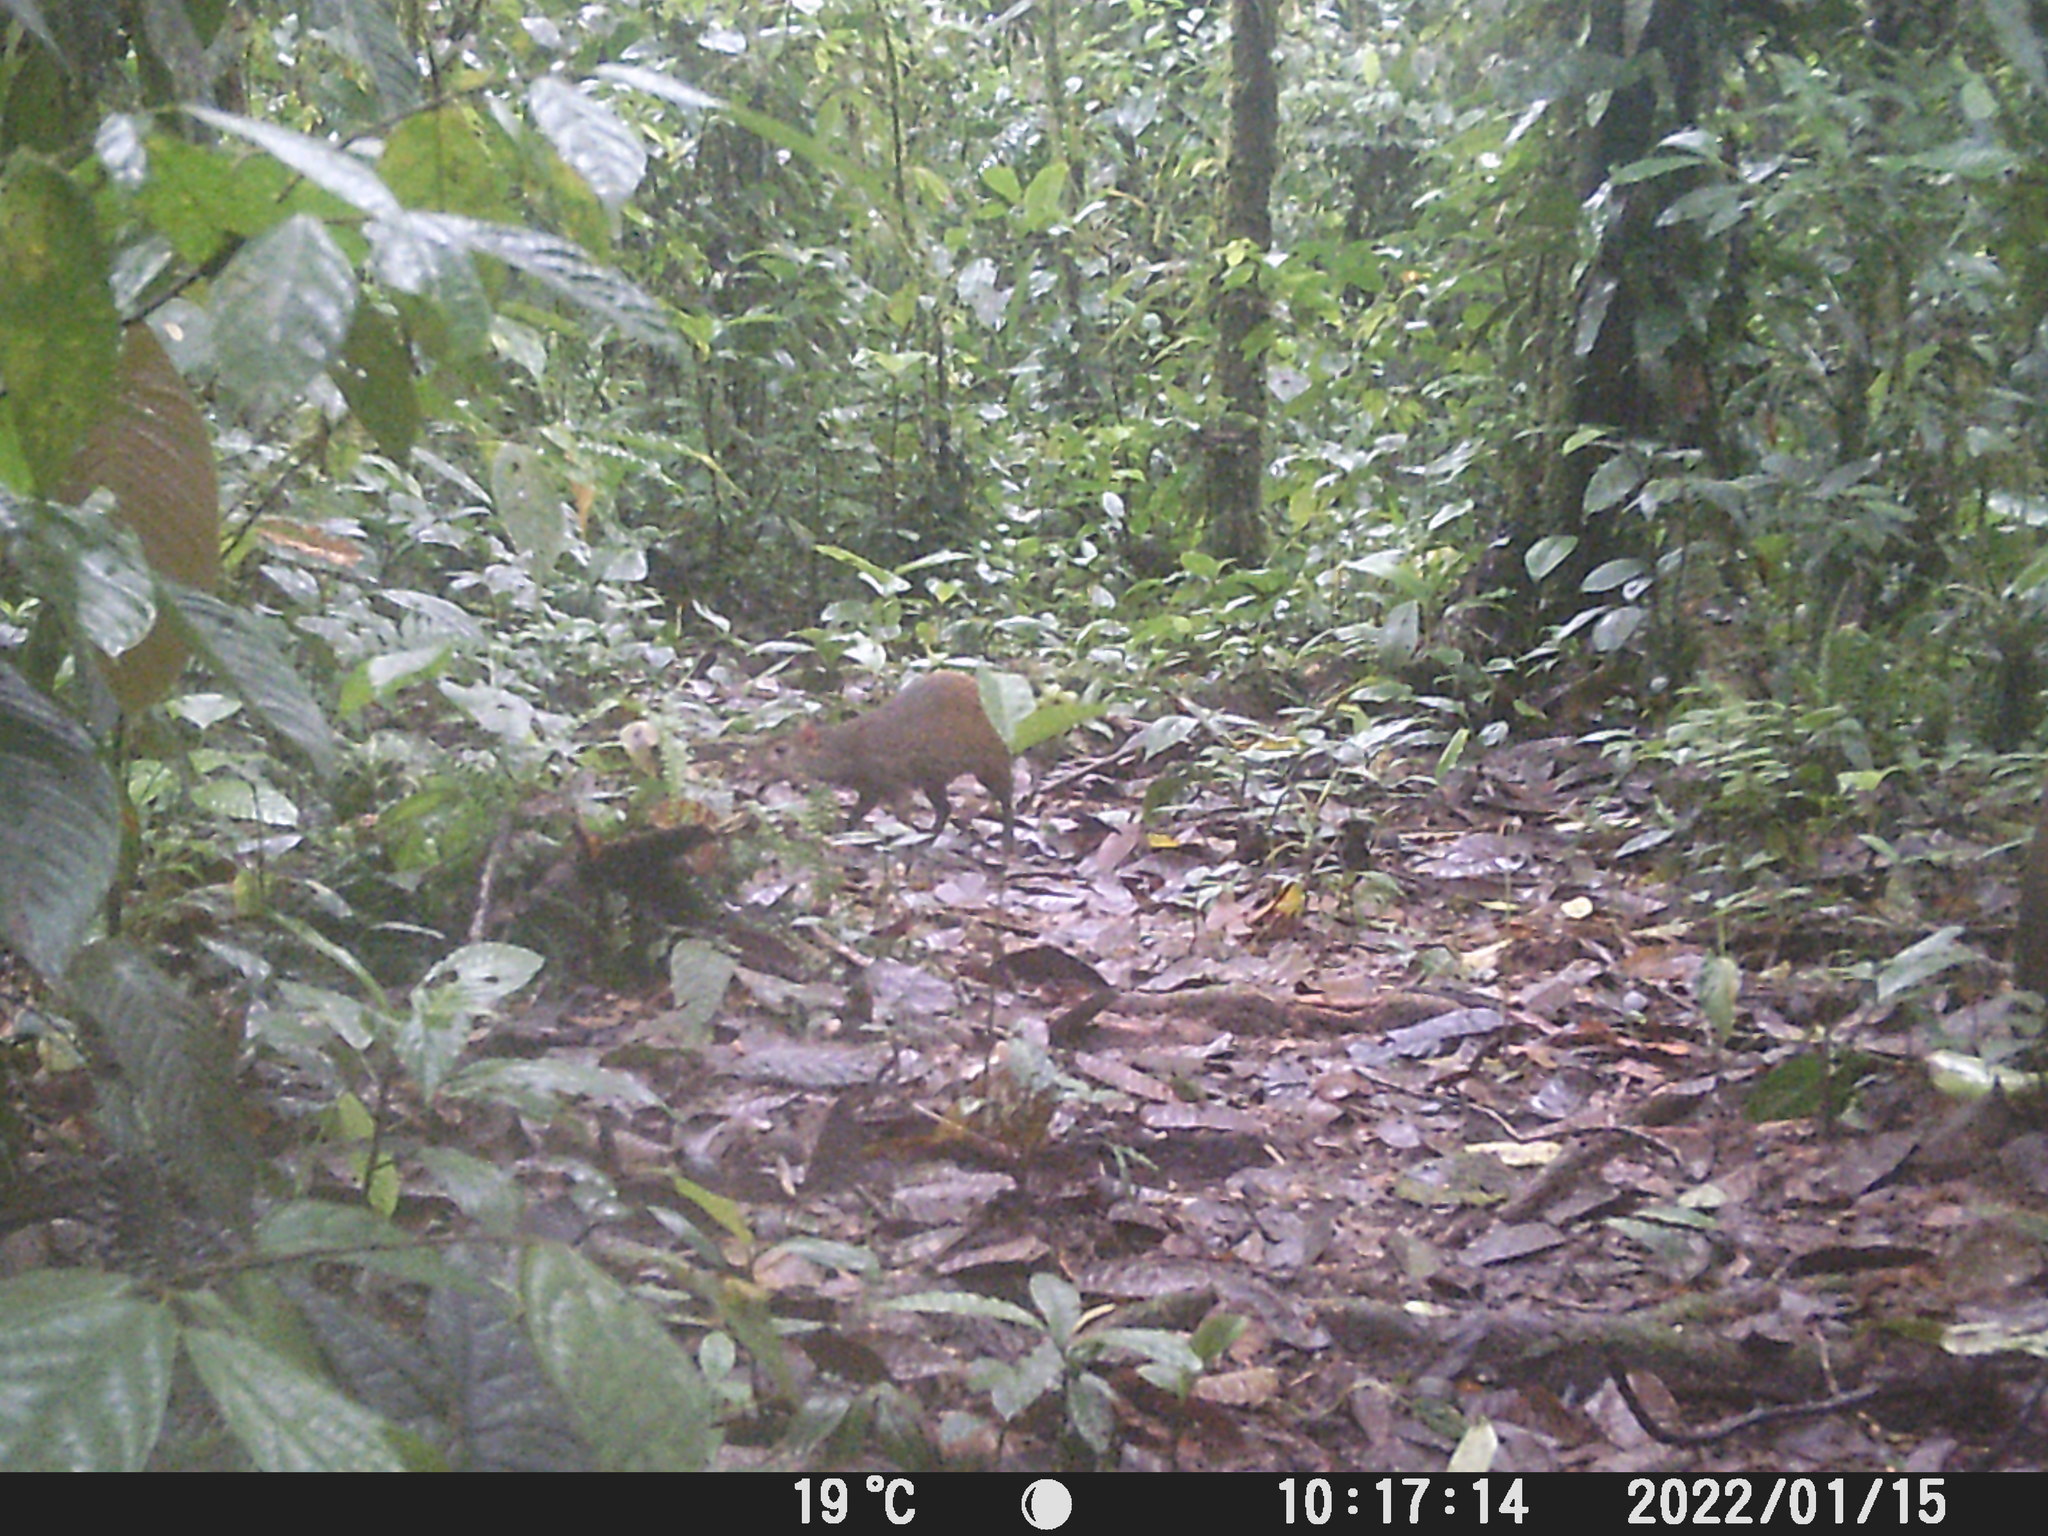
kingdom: Animalia
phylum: Chordata
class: Mammalia
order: Rodentia
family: Dasyproctidae
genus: Dasyprocta
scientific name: Dasyprocta punctata
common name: Central american agouti
